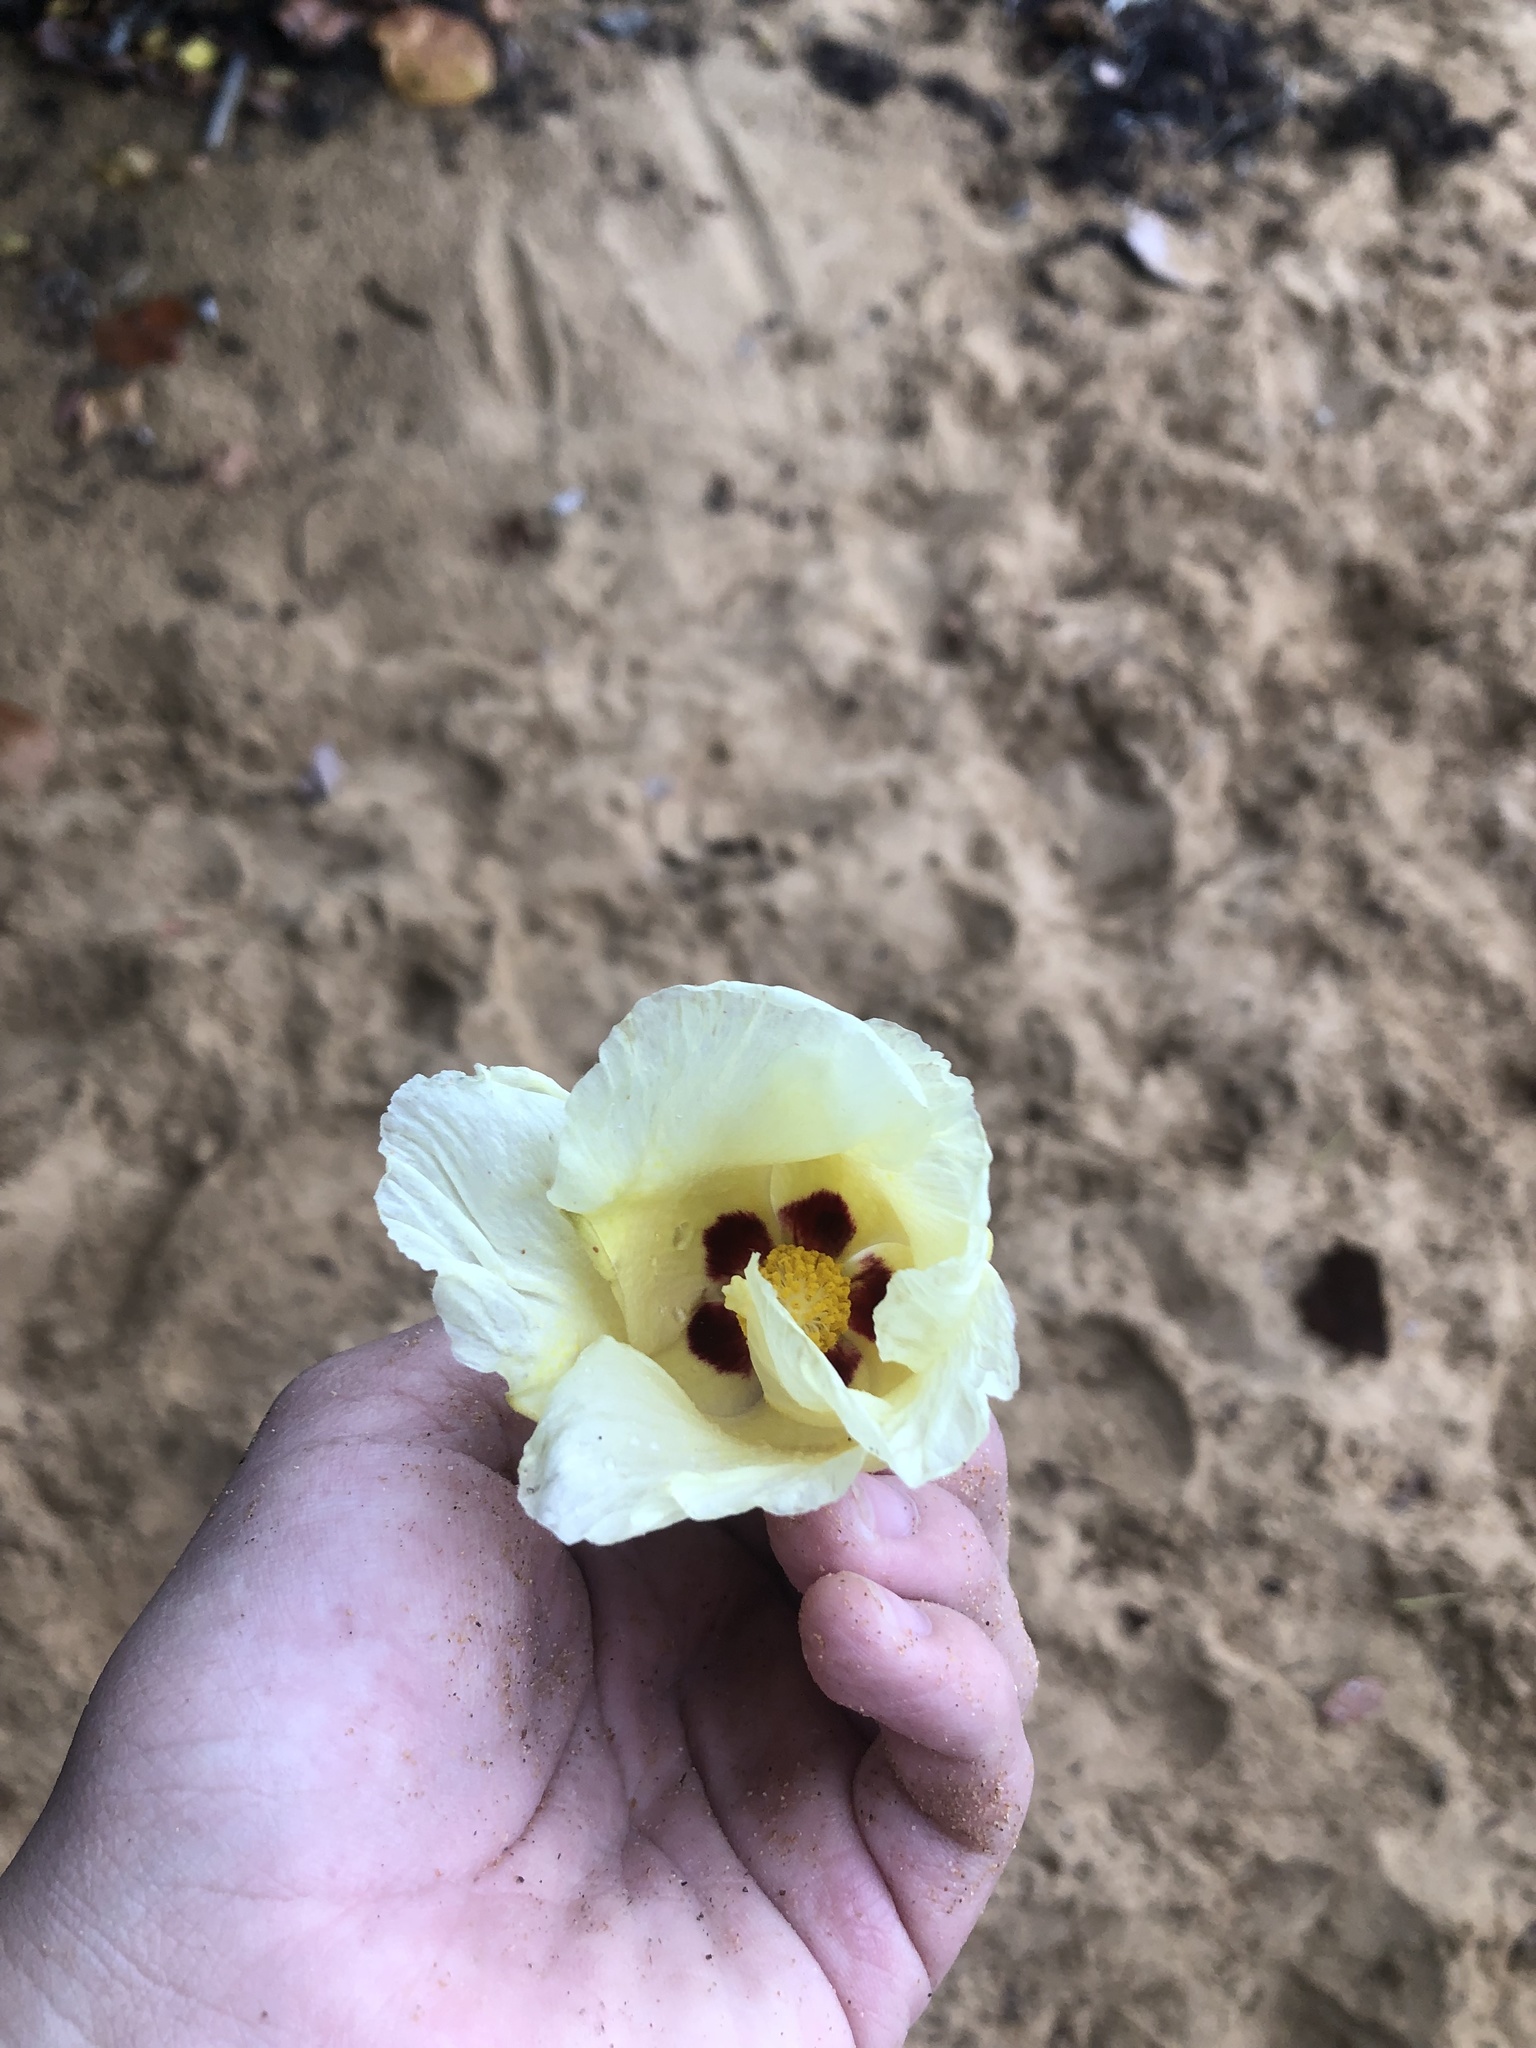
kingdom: Plantae
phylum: Tracheophyta
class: Magnoliopsida
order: Malvales
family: Malvaceae
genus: Thespesia
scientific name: Thespesia populnea
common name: Seaside mahoe
